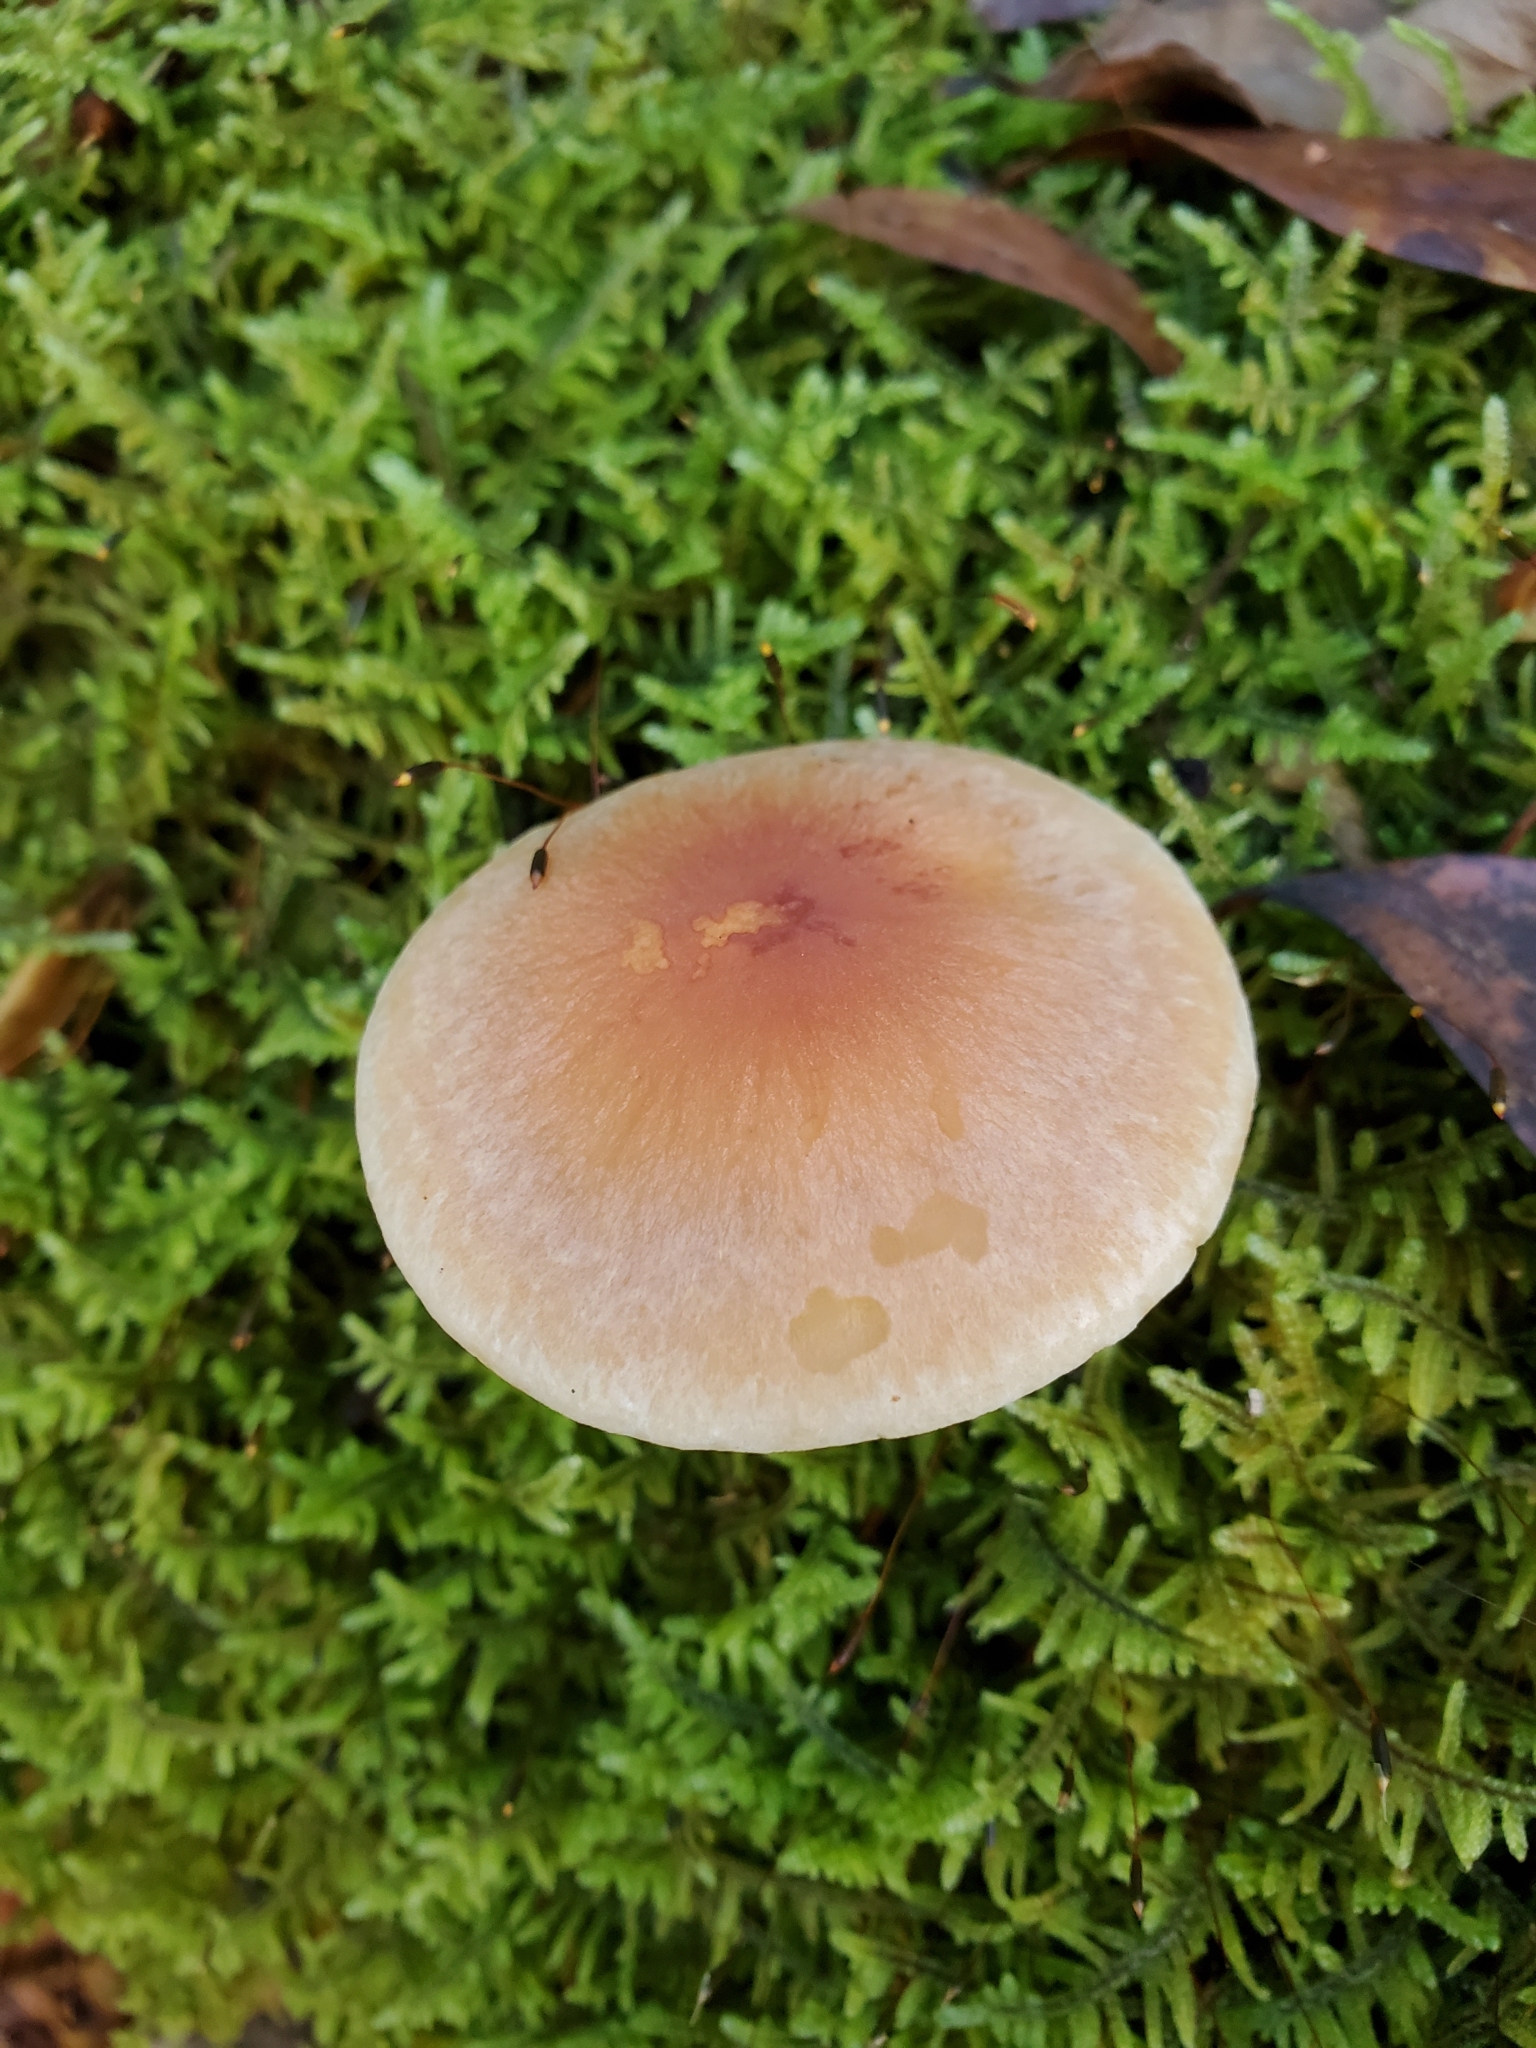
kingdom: Fungi
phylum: Basidiomycota
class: Agaricomycetes
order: Agaricales
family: Strophariaceae
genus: Hypholoma
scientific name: Hypholoma lateritium
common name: Brick caps
